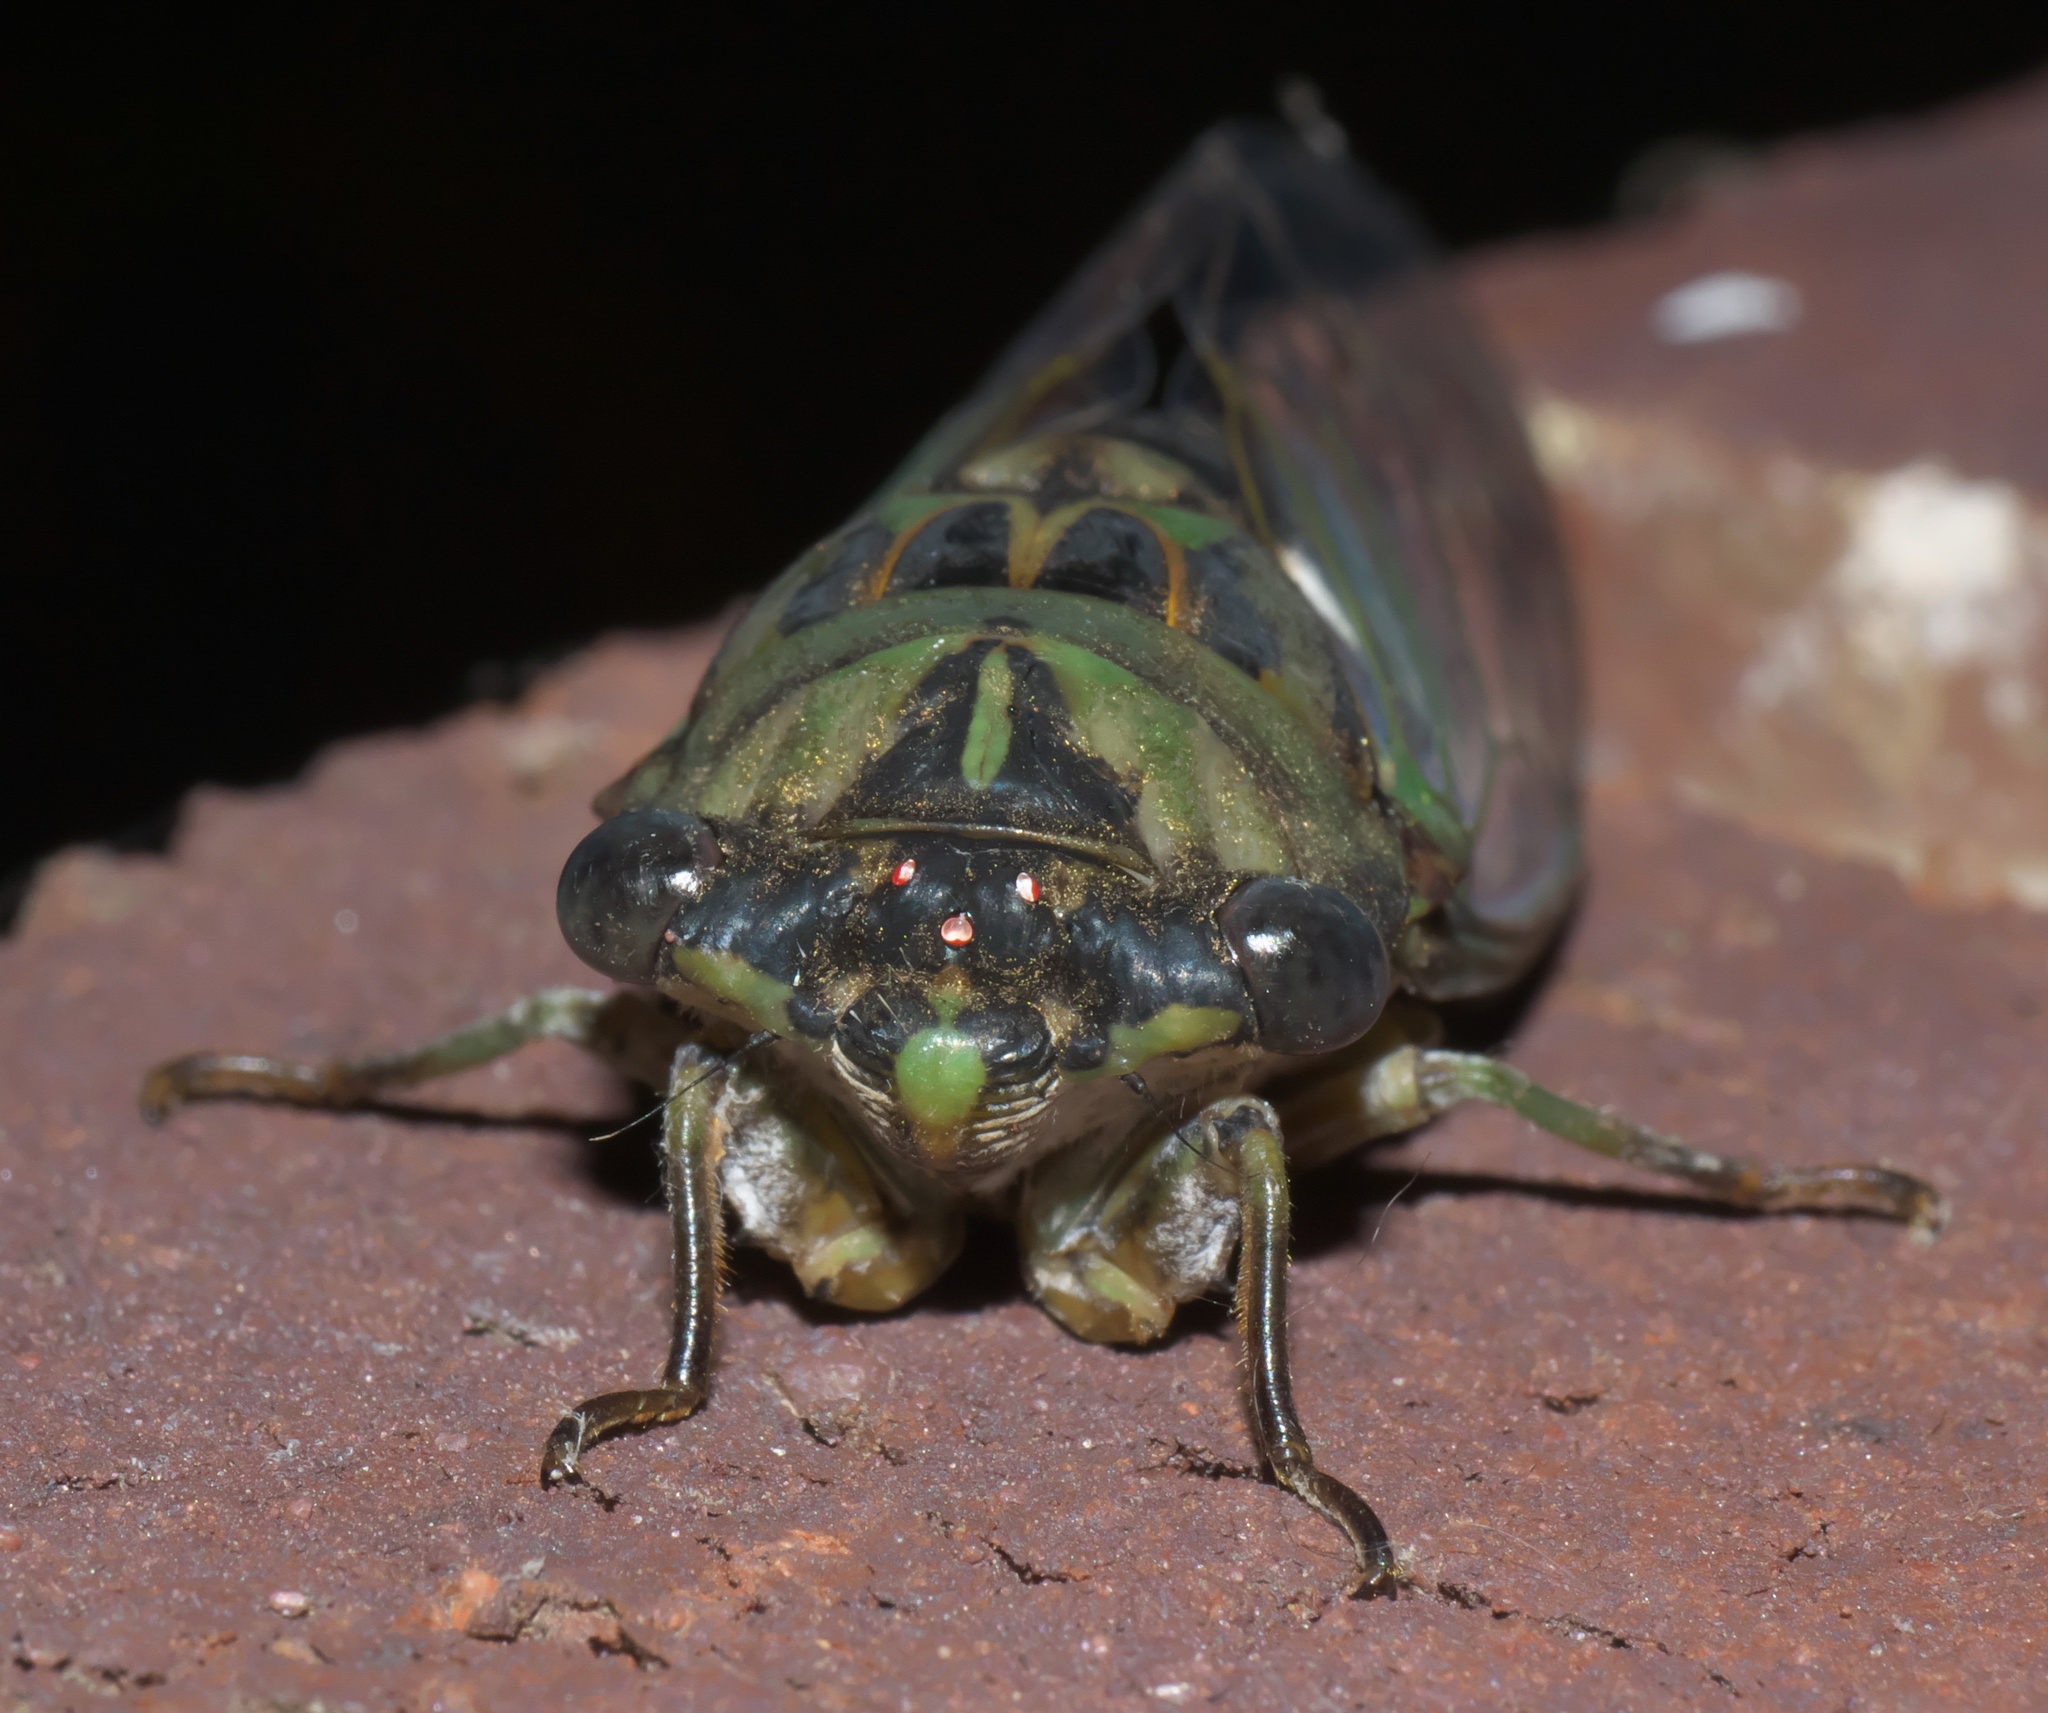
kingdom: Animalia
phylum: Arthropoda
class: Insecta
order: Hemiptera
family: Cicadidae
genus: Neotibicen
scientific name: Neotibicen pruinosus
